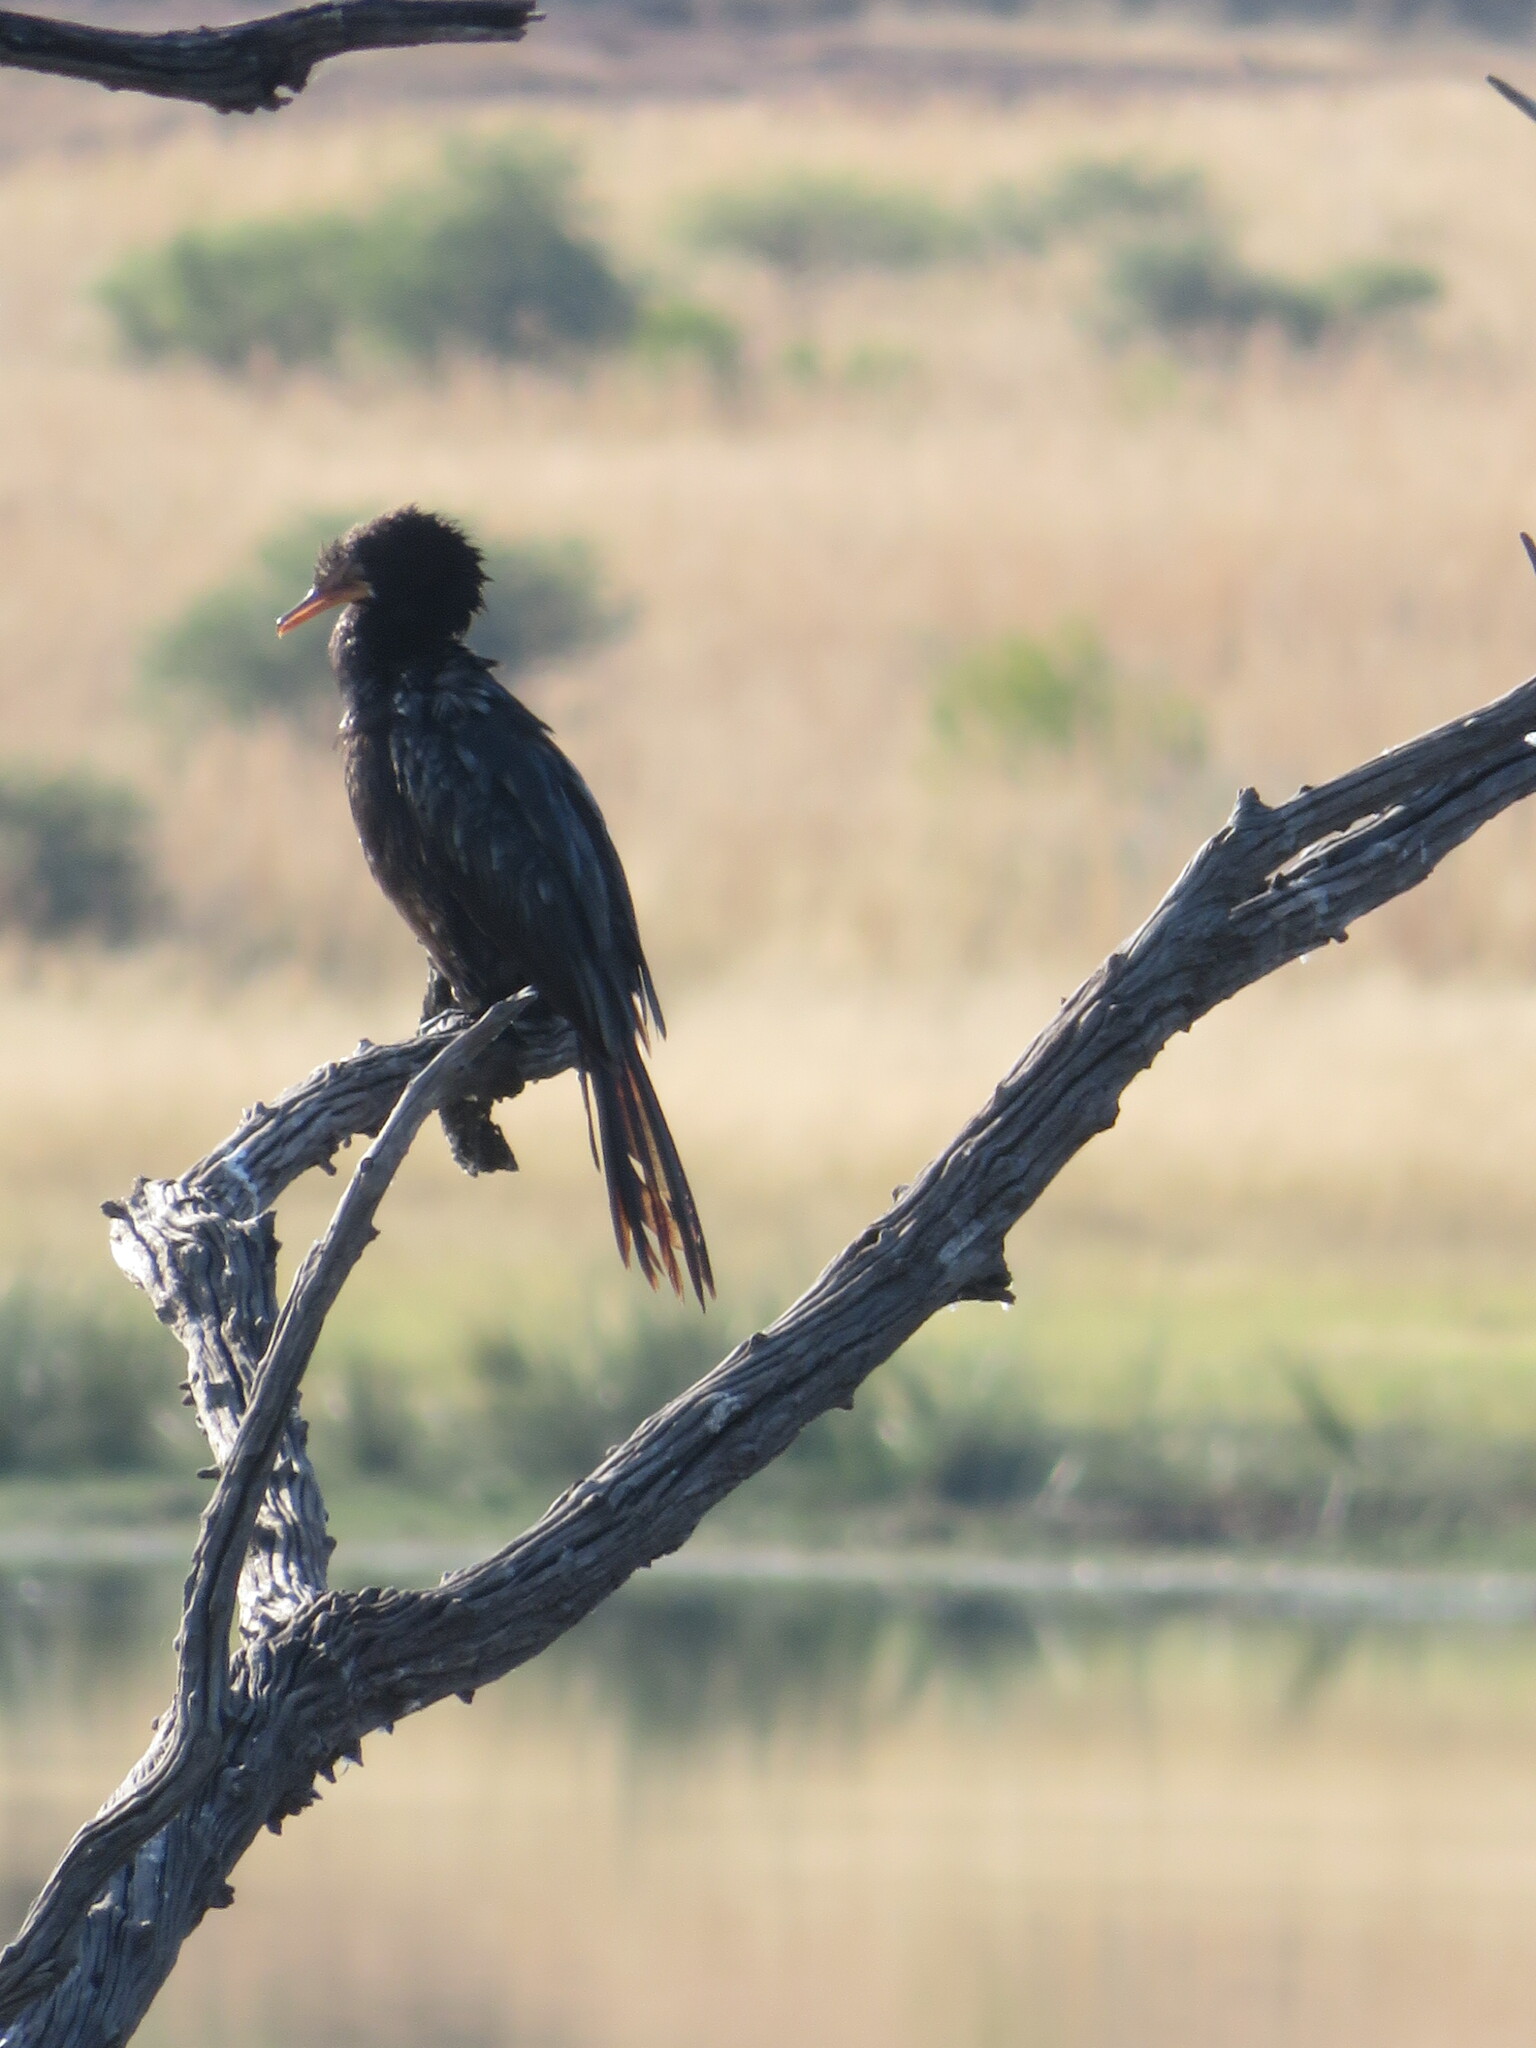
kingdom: Animalia
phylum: Chordata
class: Aves
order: Suliformes
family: Phalacrocoracidae
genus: Microcarbo
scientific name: Microcarbo africanus
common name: Long-tailed cormorant
